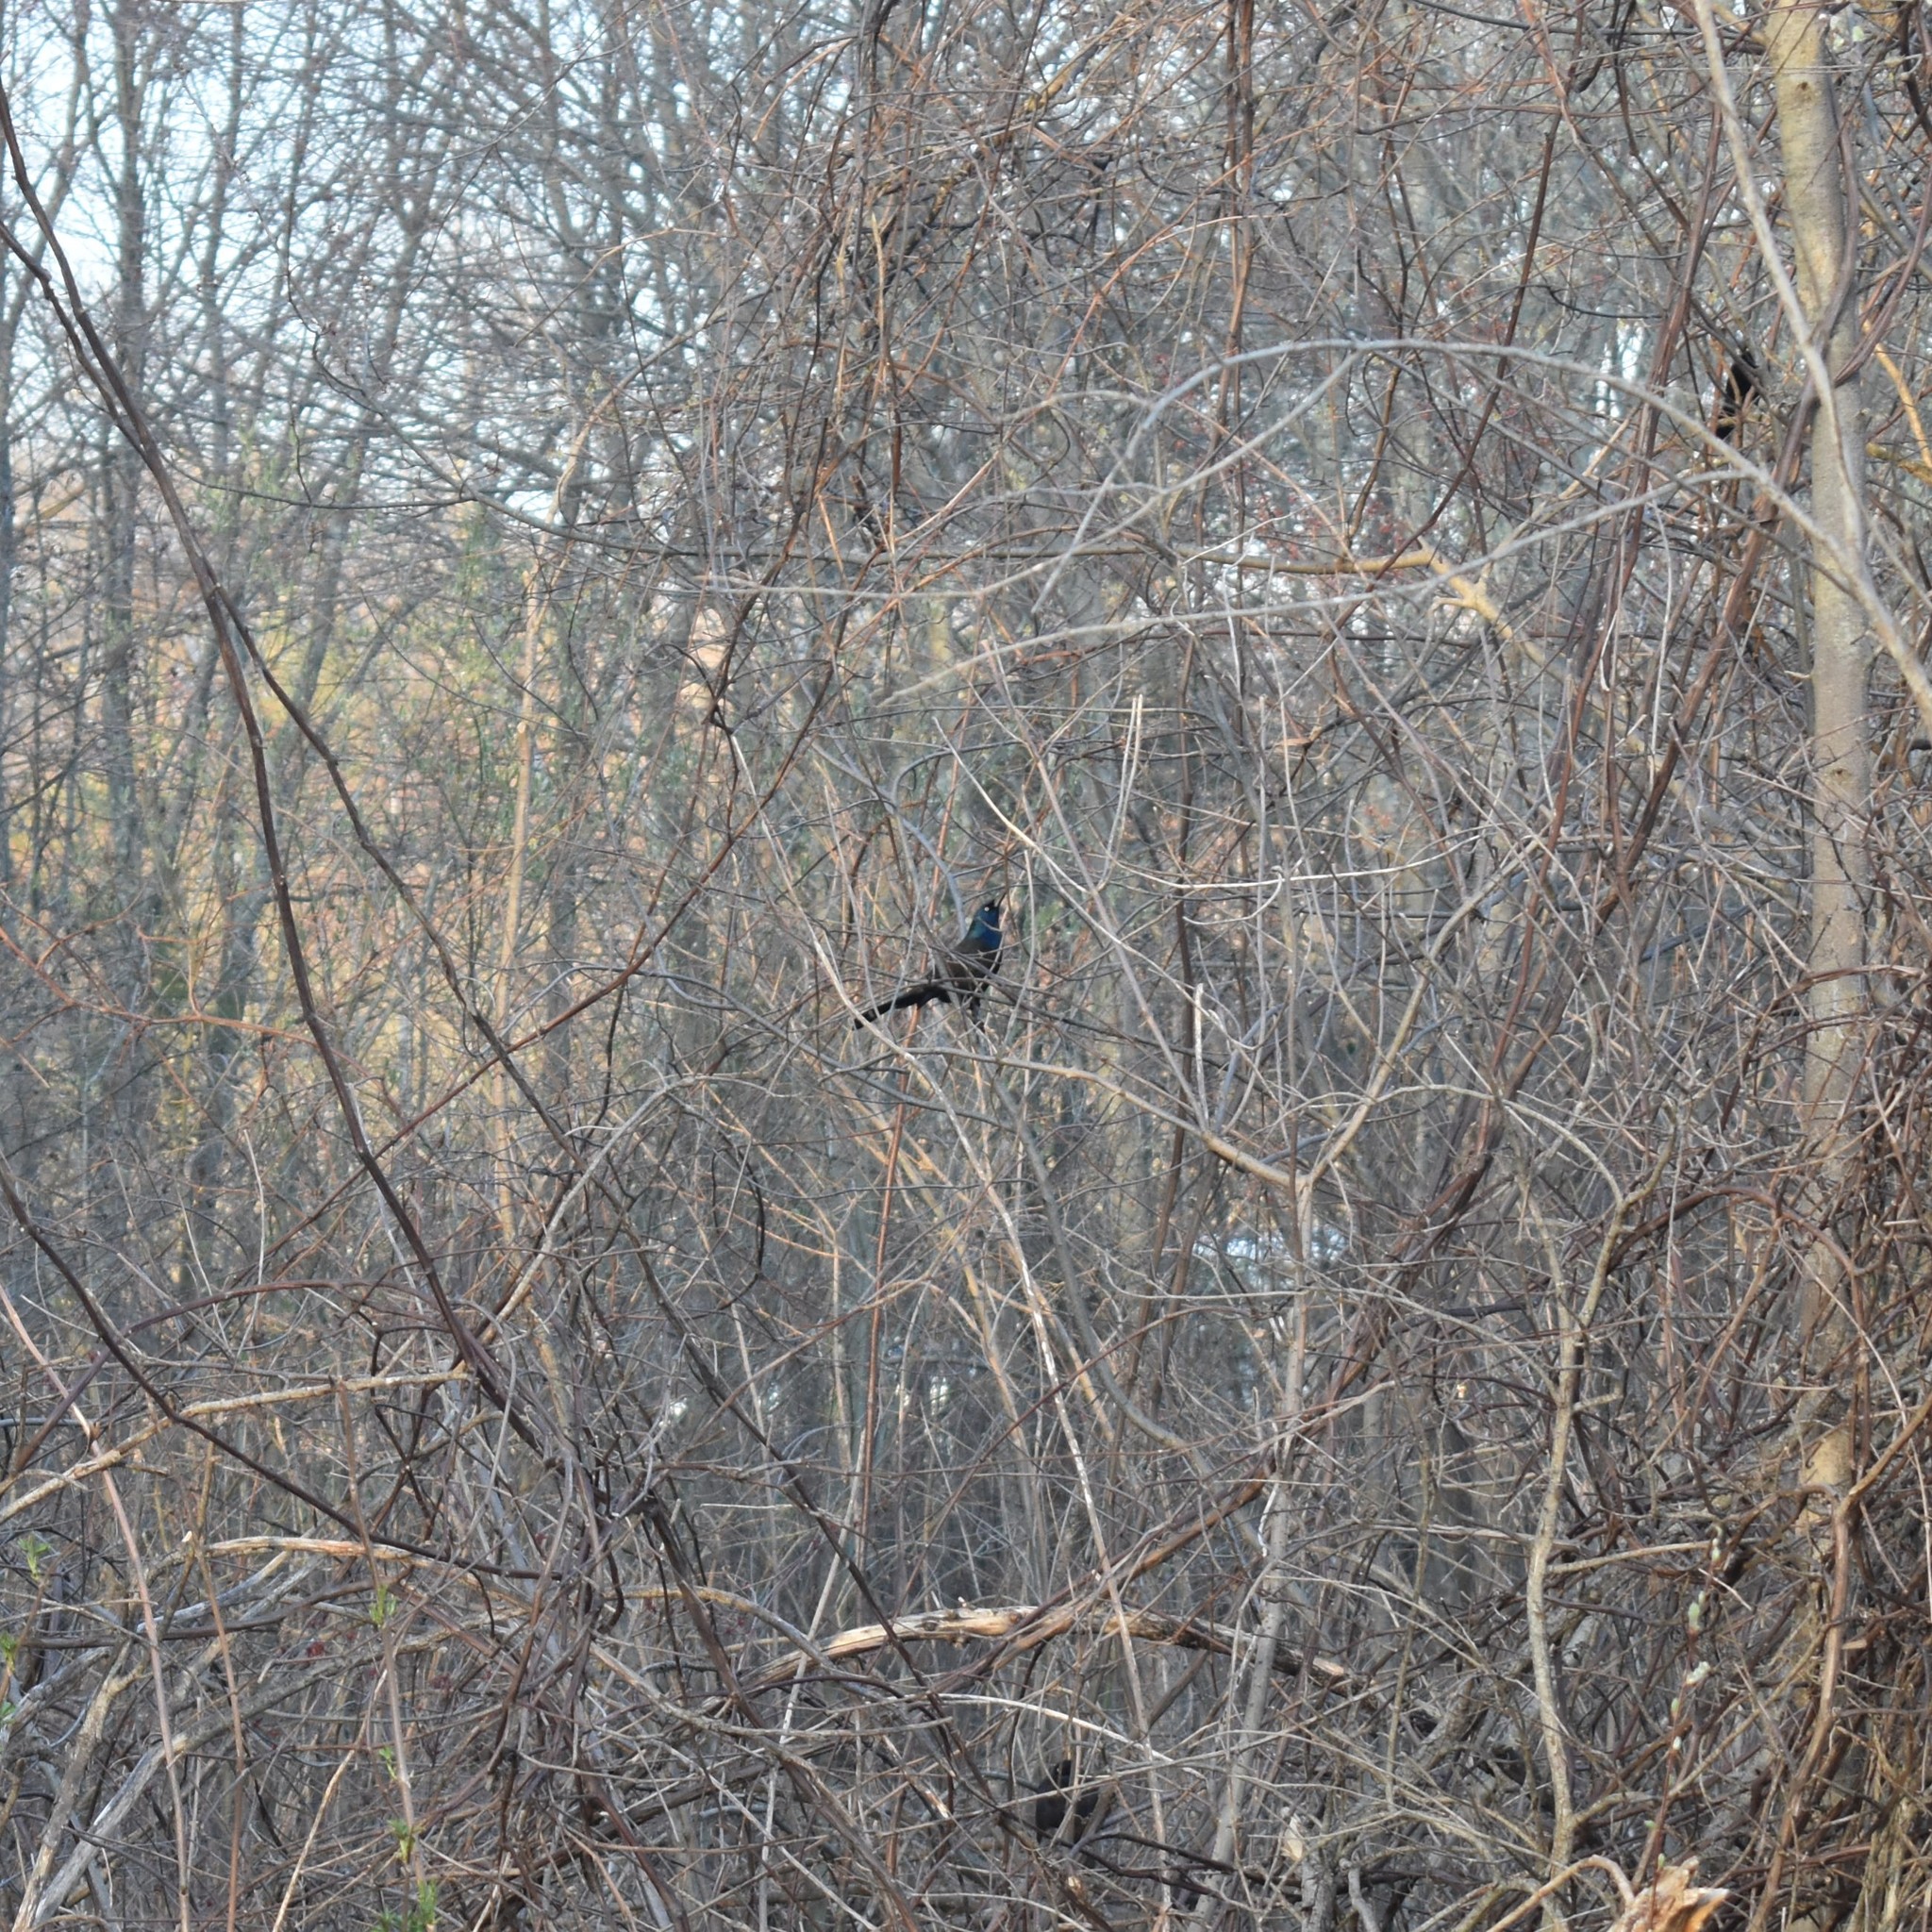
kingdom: Animalia
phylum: Chordata
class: Aves
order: Passeriformes
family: Icteridae
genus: Quiscalus
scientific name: Quiscalus quiscula
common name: Common grackle
